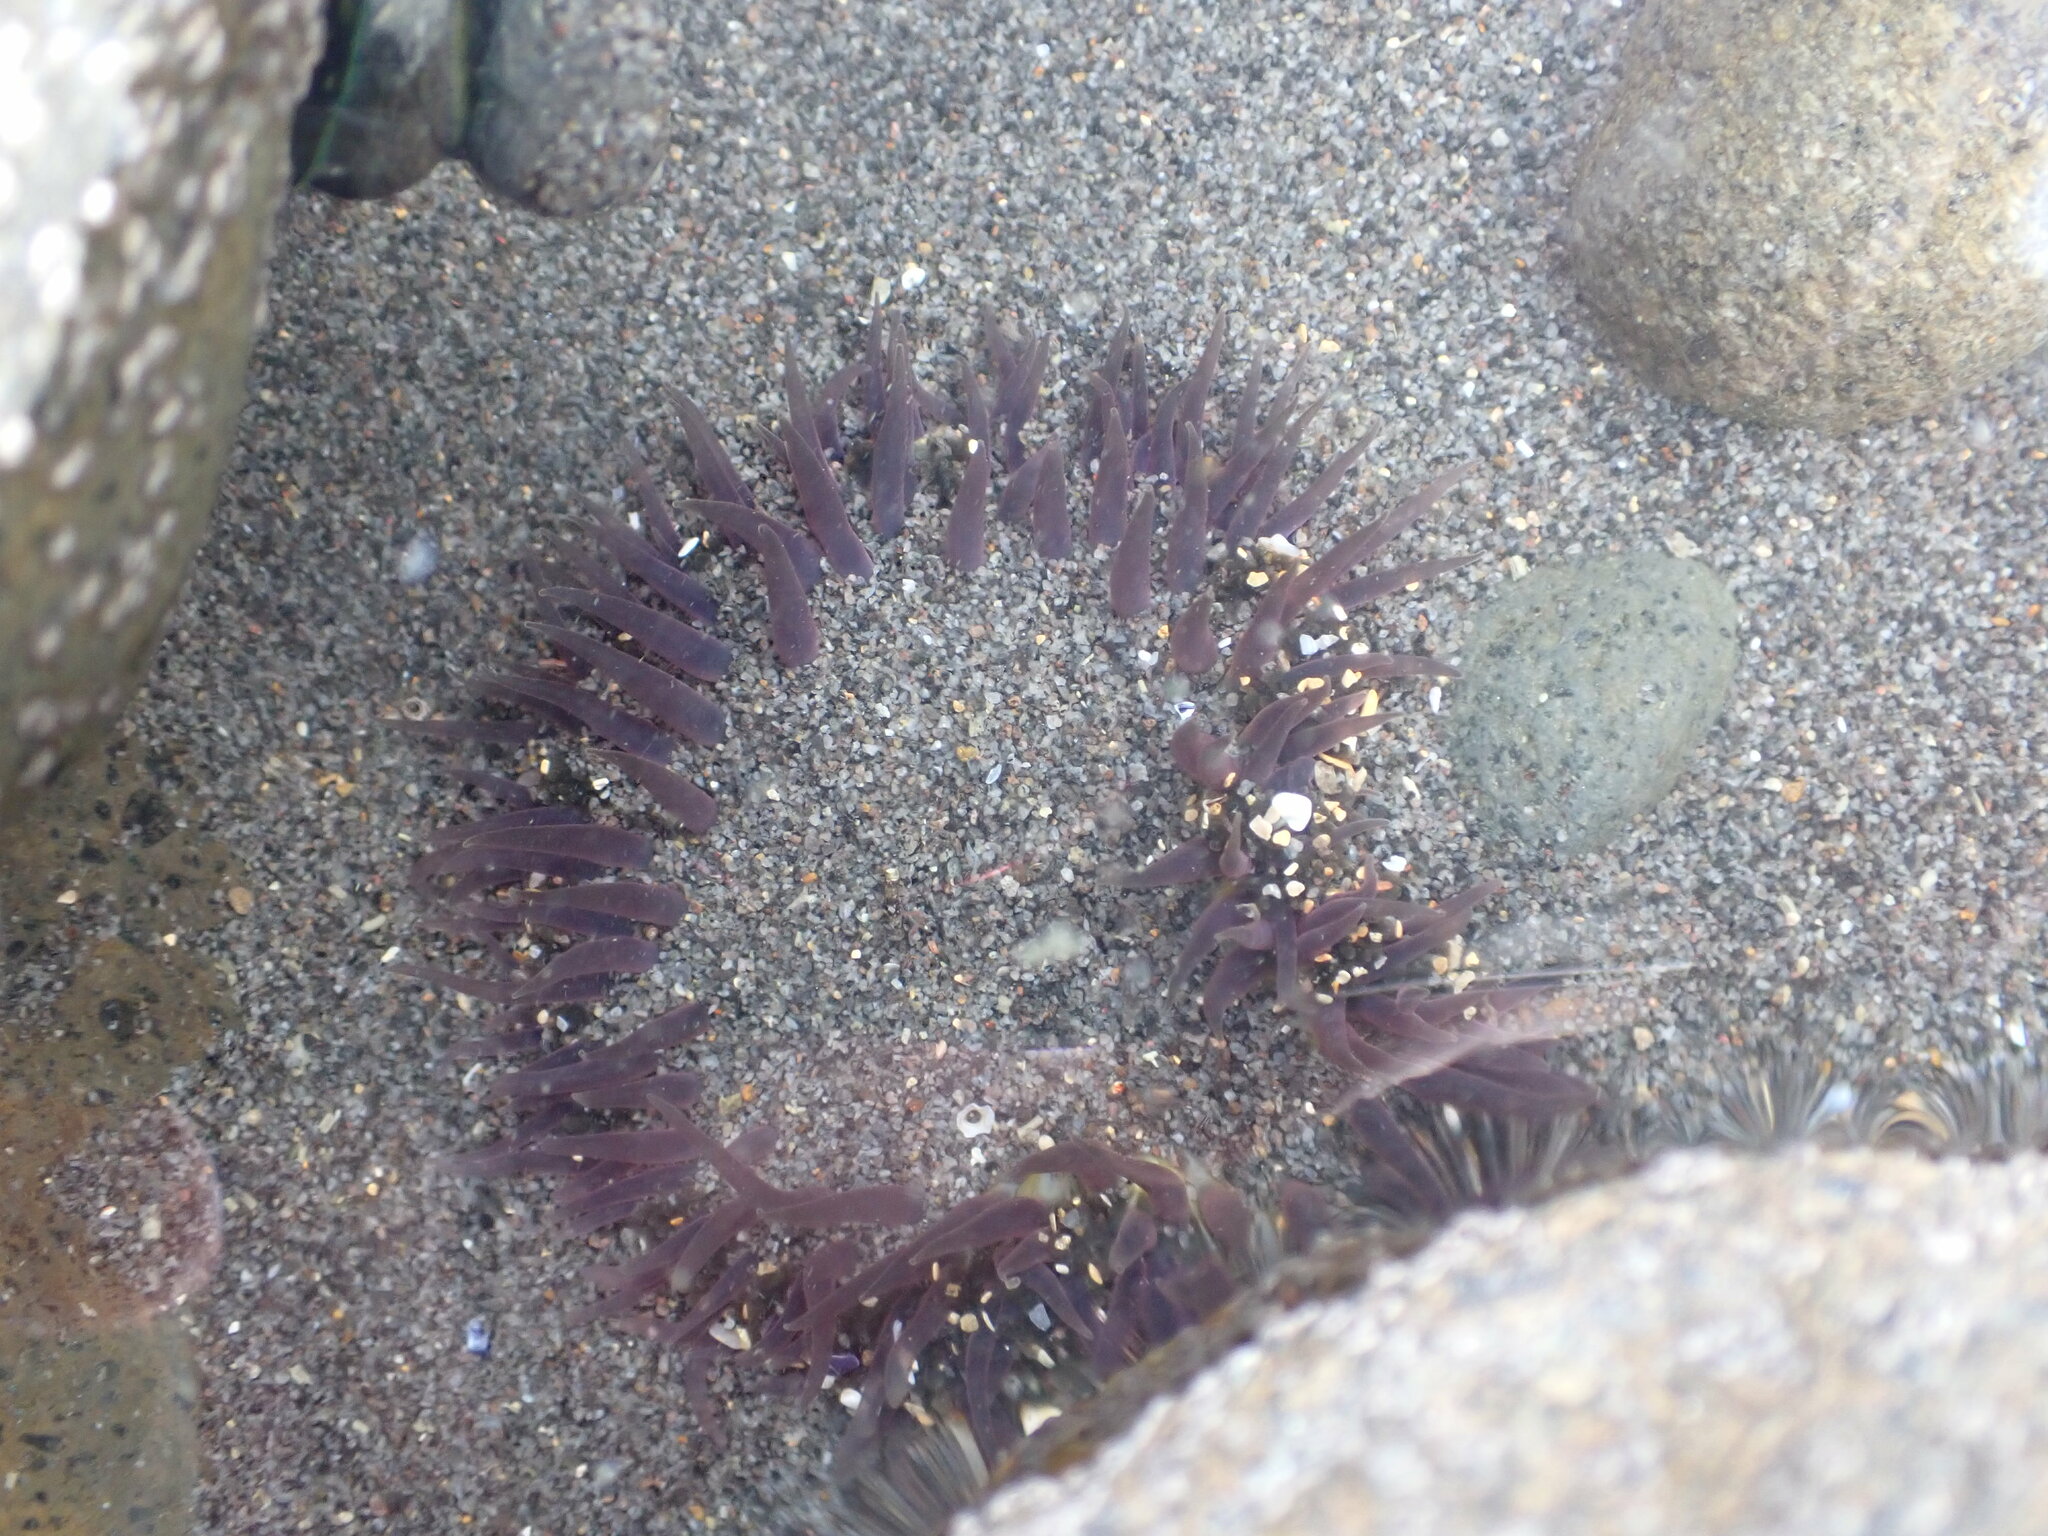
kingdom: Animalia
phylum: Cnidaria
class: Anthozoa
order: Actiniaria
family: Actiniidae
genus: Oulactis
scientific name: Oulactis magna
